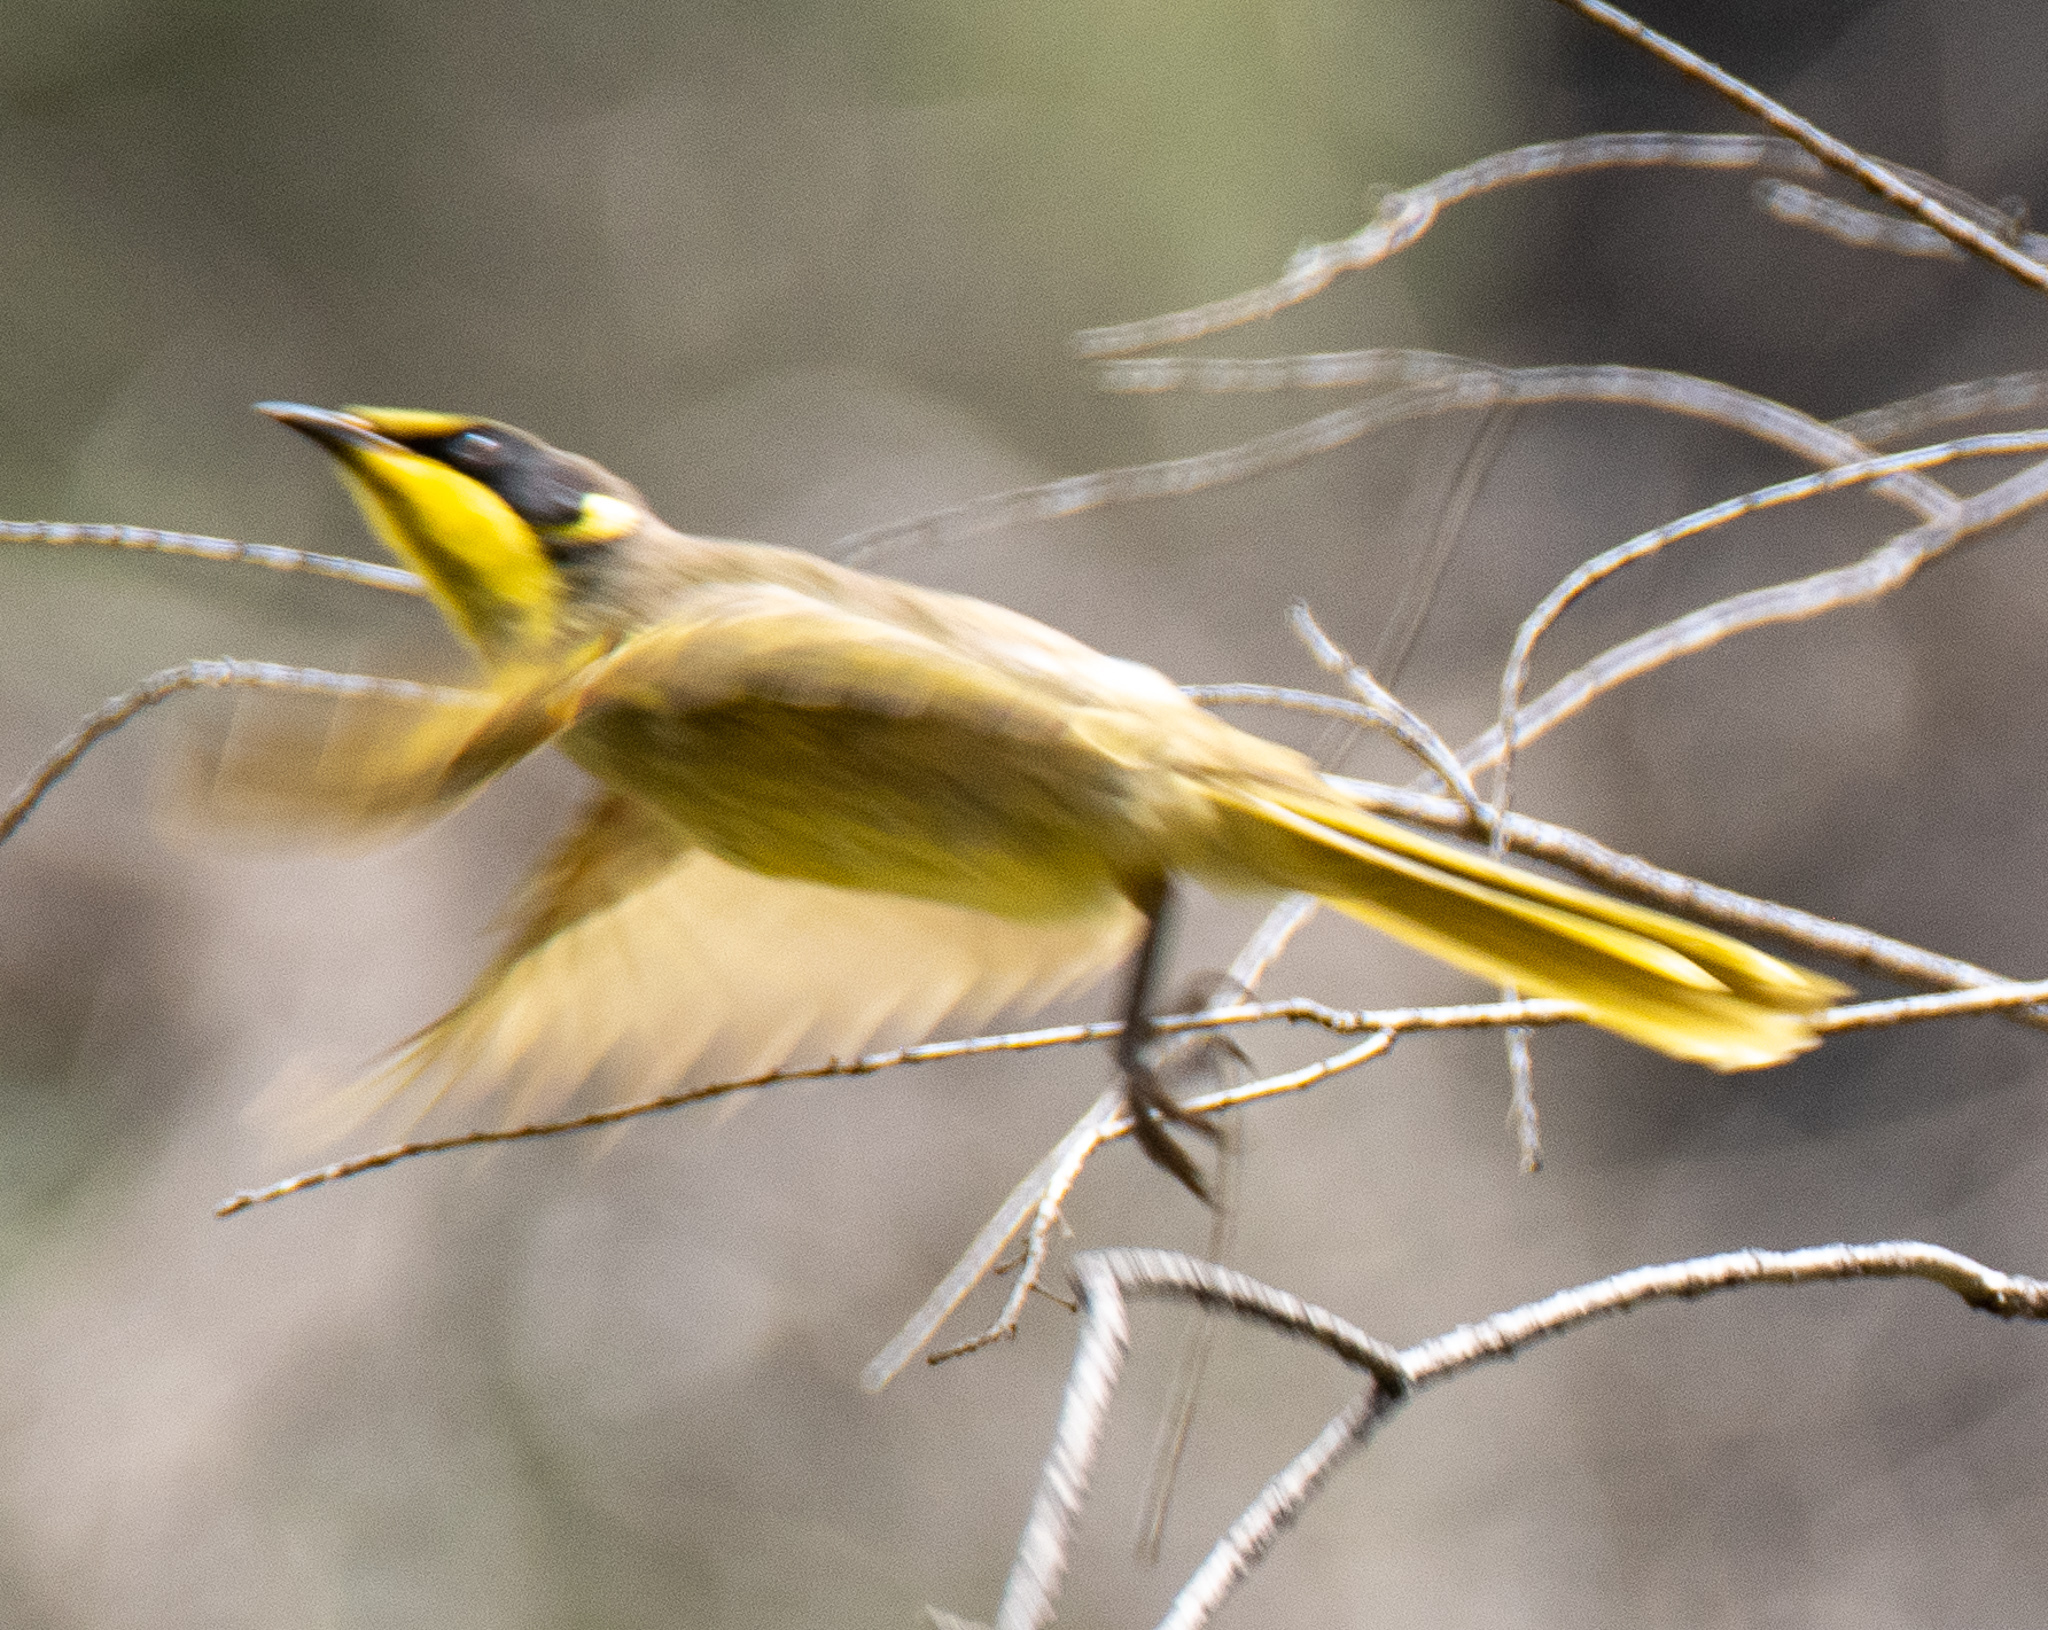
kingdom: Animalia
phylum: Chordata
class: Aves
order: Passeriformes
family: Meliphagidae
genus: Lichenostomus
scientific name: Lichenostomus melanops
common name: Yellow-tufted honeyeater
